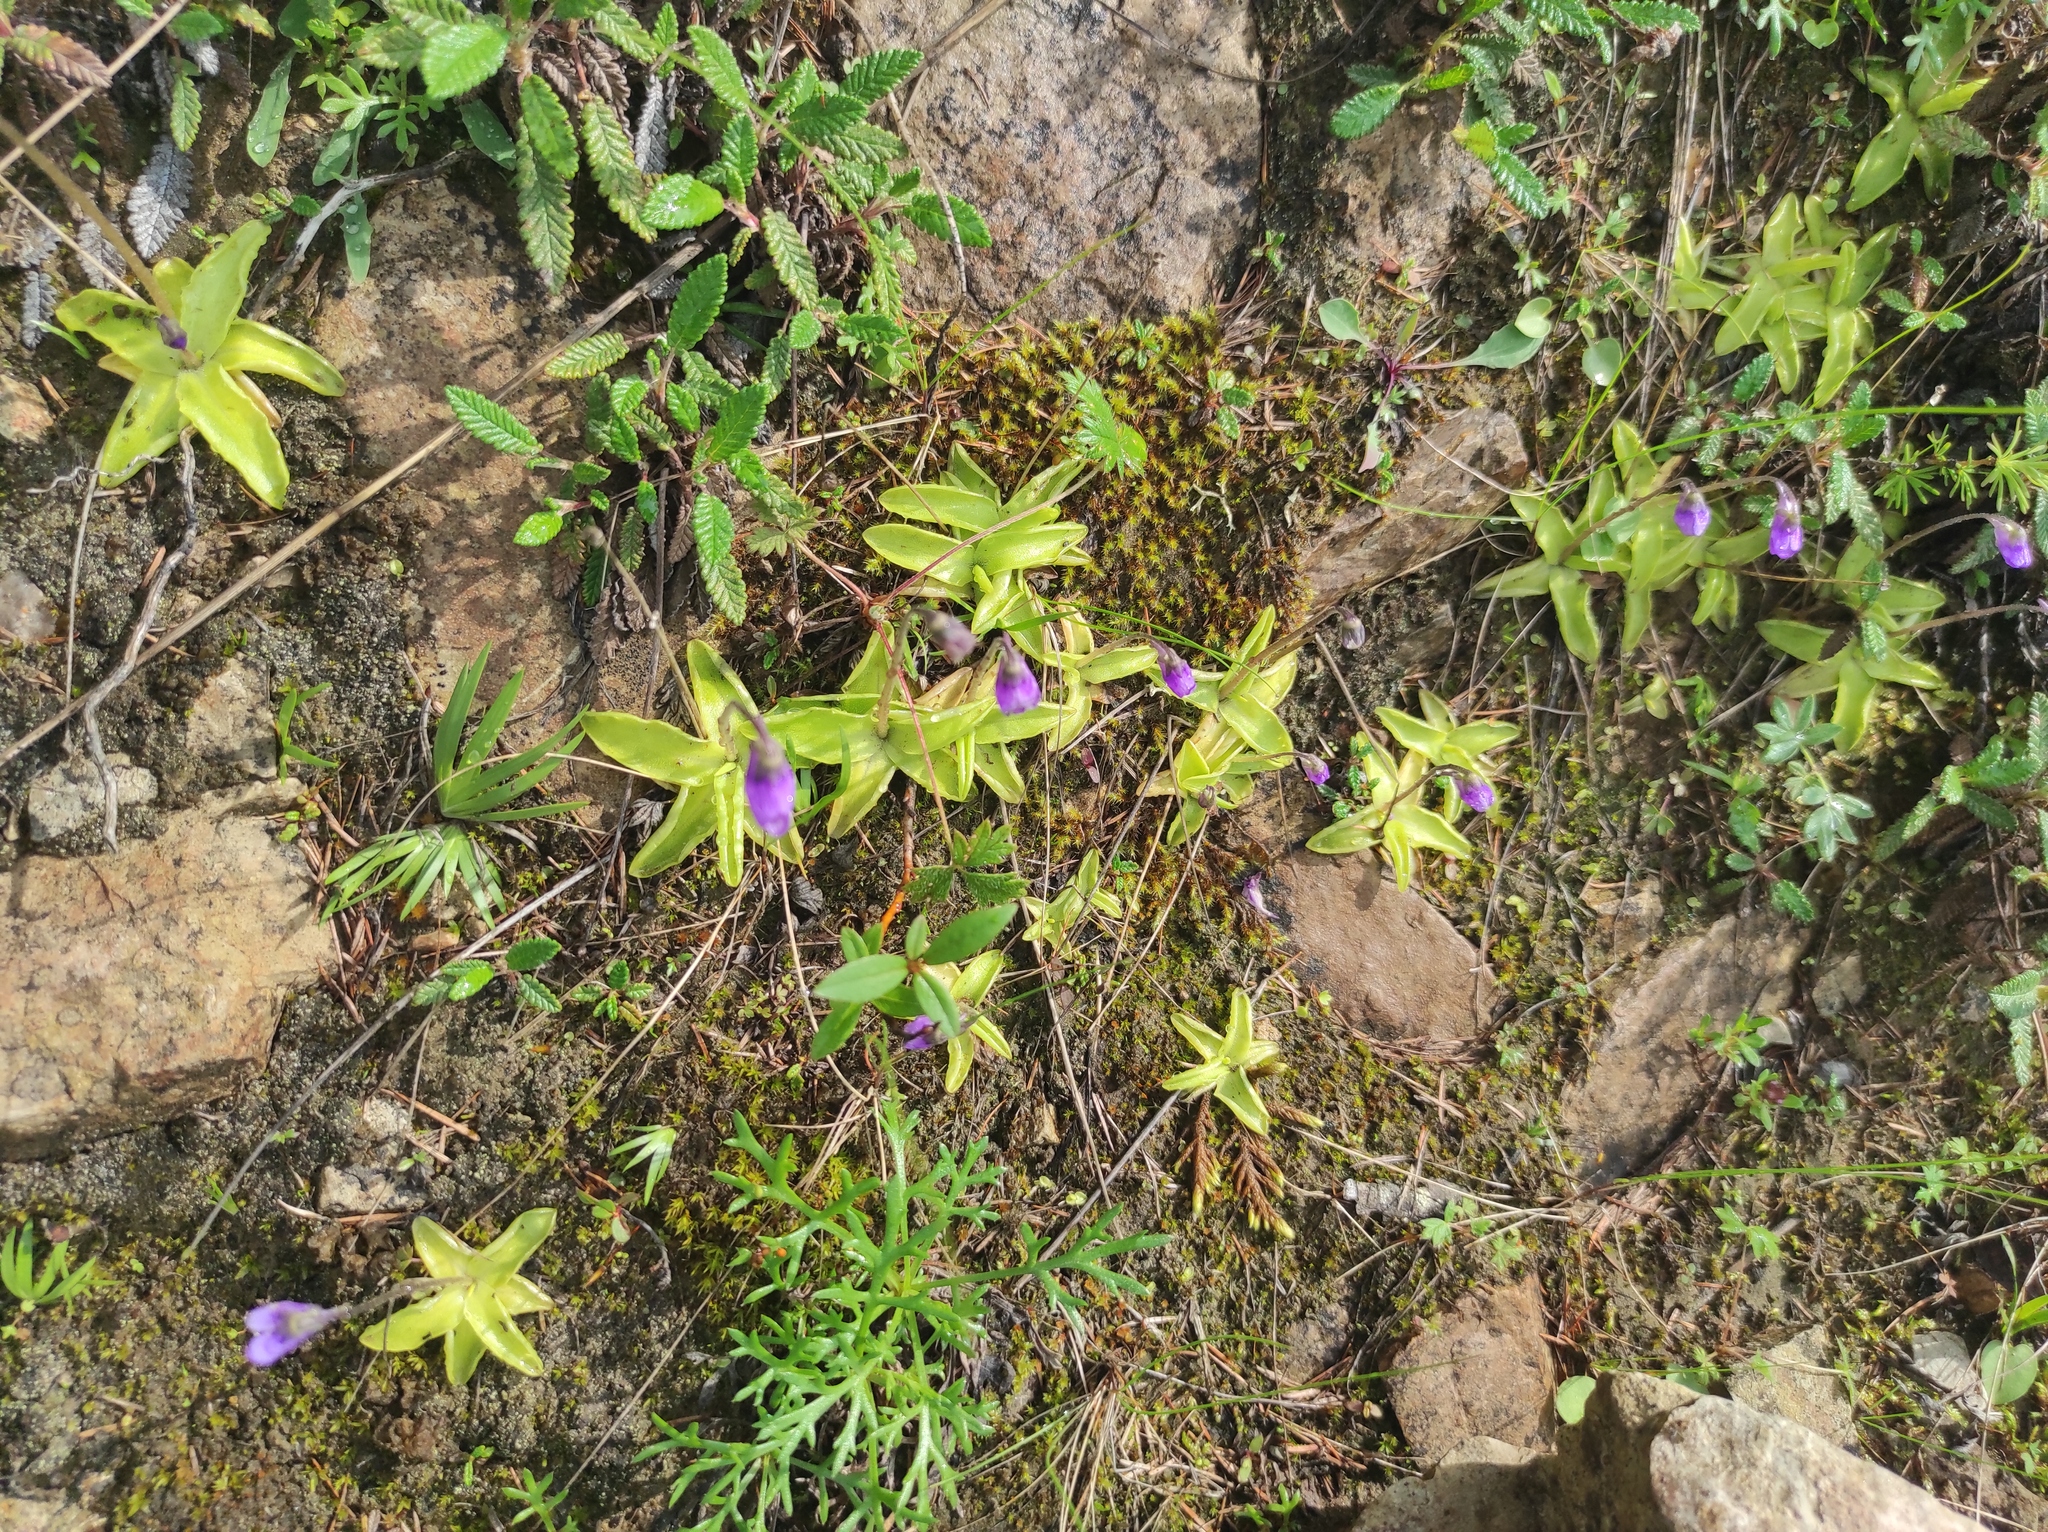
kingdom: Plantae
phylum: Tracheophyta
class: Magnoliopsida
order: Lamiales
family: Lentibulariaceae
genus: Pinguicula
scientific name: Pinguicula vulgaris
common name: Common butterwort
